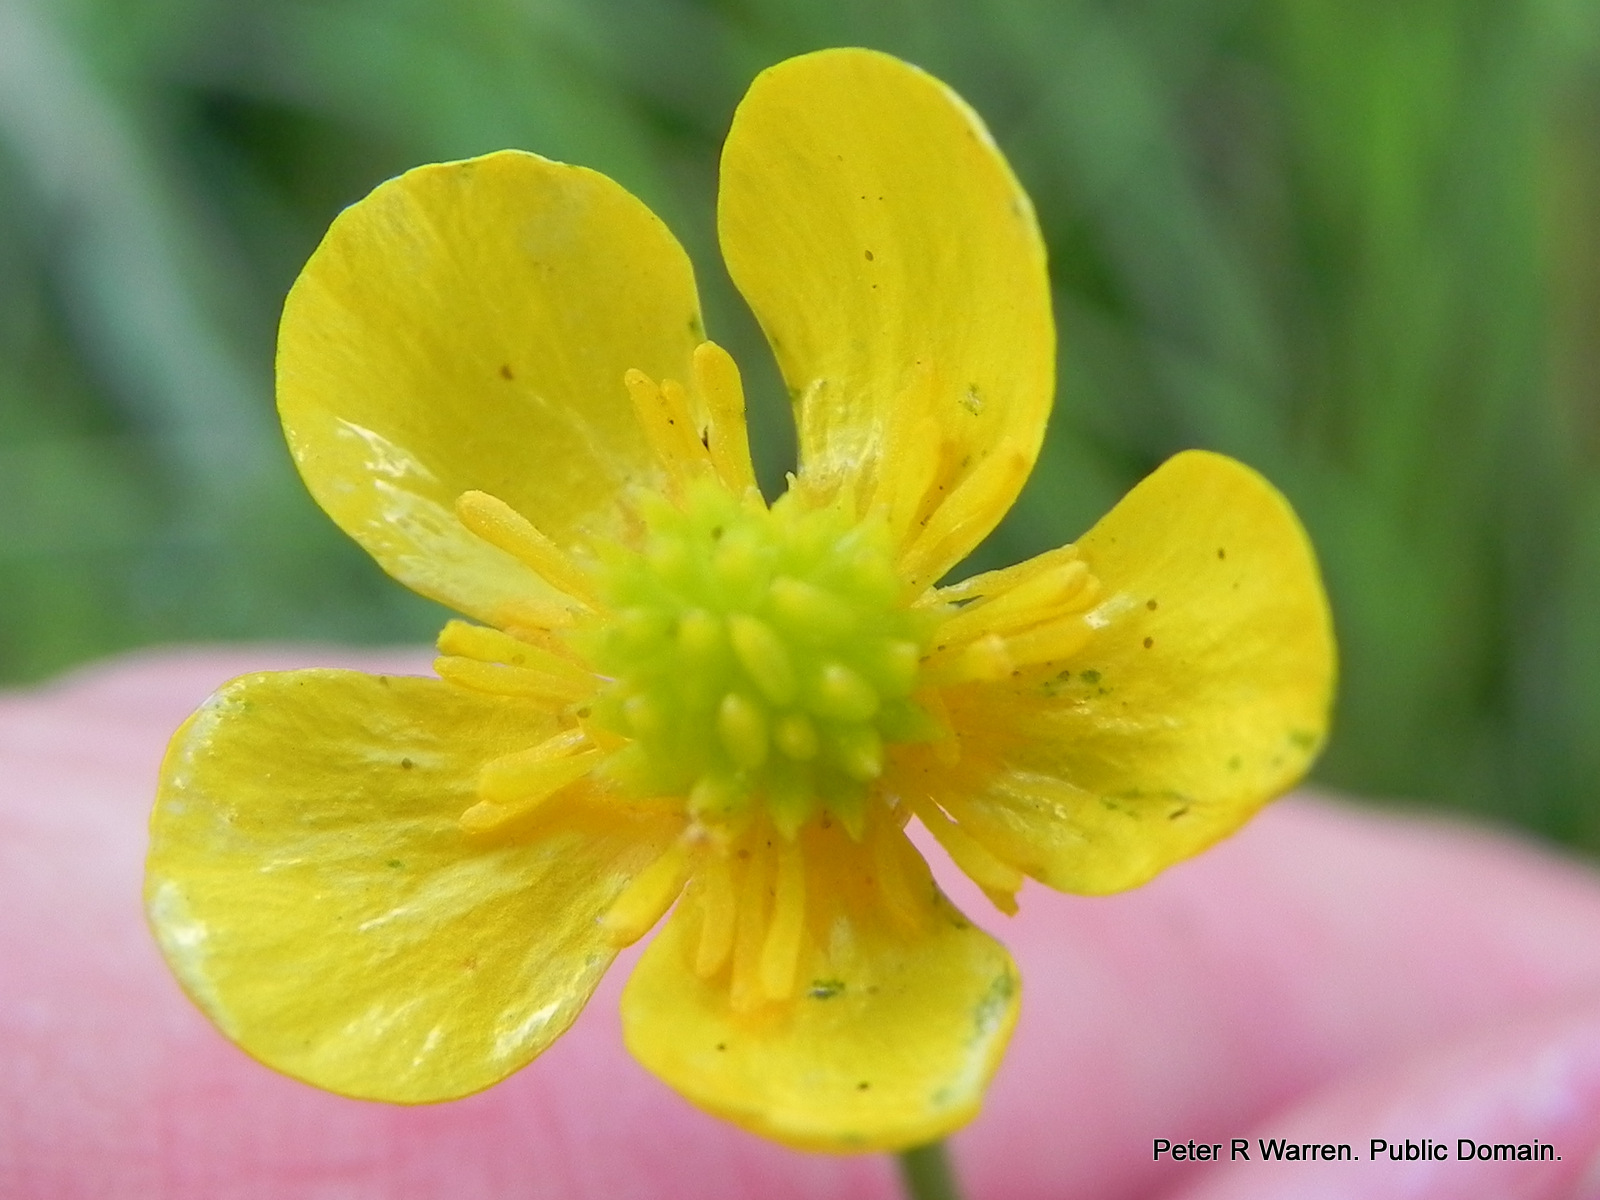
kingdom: Plantae
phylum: Tracheophyta
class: Magnoliopsida
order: Ranunculales
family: Ranunculaceae
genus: Ranunculus
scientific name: Ranunculus multifidus
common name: Wild buttercup
